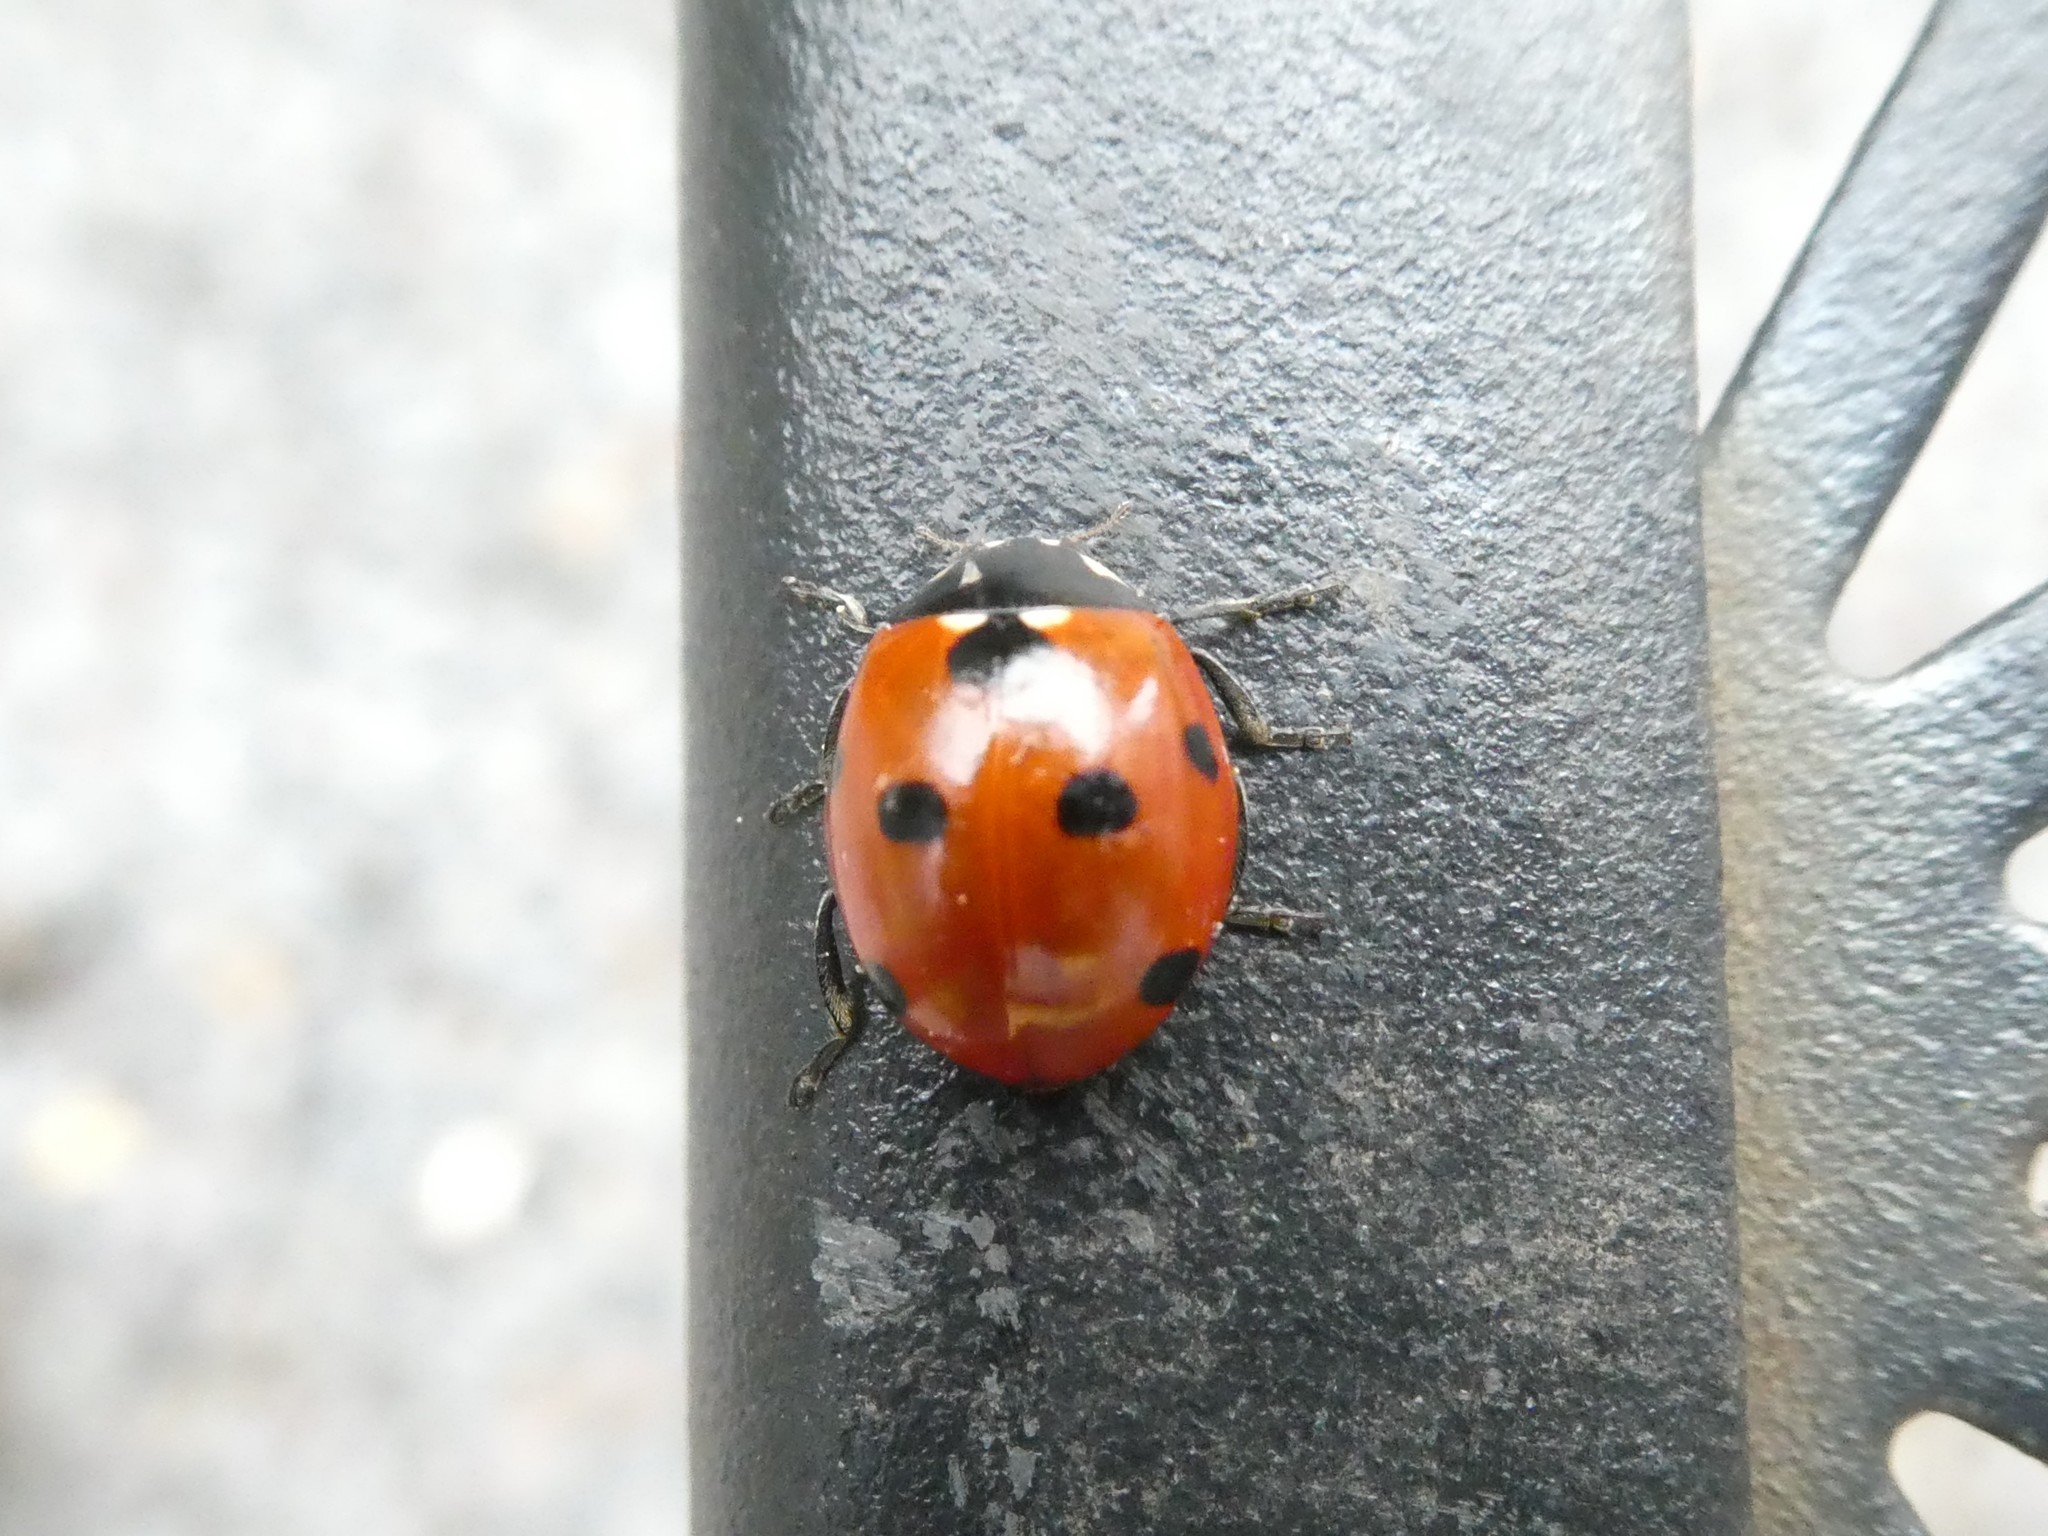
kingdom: Animalia
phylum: Arthropoda
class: Insecta
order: Coleoptera
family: Coccinellidae
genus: Coccinella
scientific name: Coccinella septempunctata
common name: Sevenspotted lady beetle
